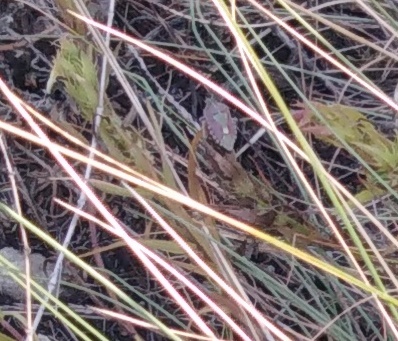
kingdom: Animalia
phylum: Arthropoda
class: Insecta
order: Hemiptera
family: Pentatomidae
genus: Dolycoris
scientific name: Dolycoris baccarum
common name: Sloe bug
